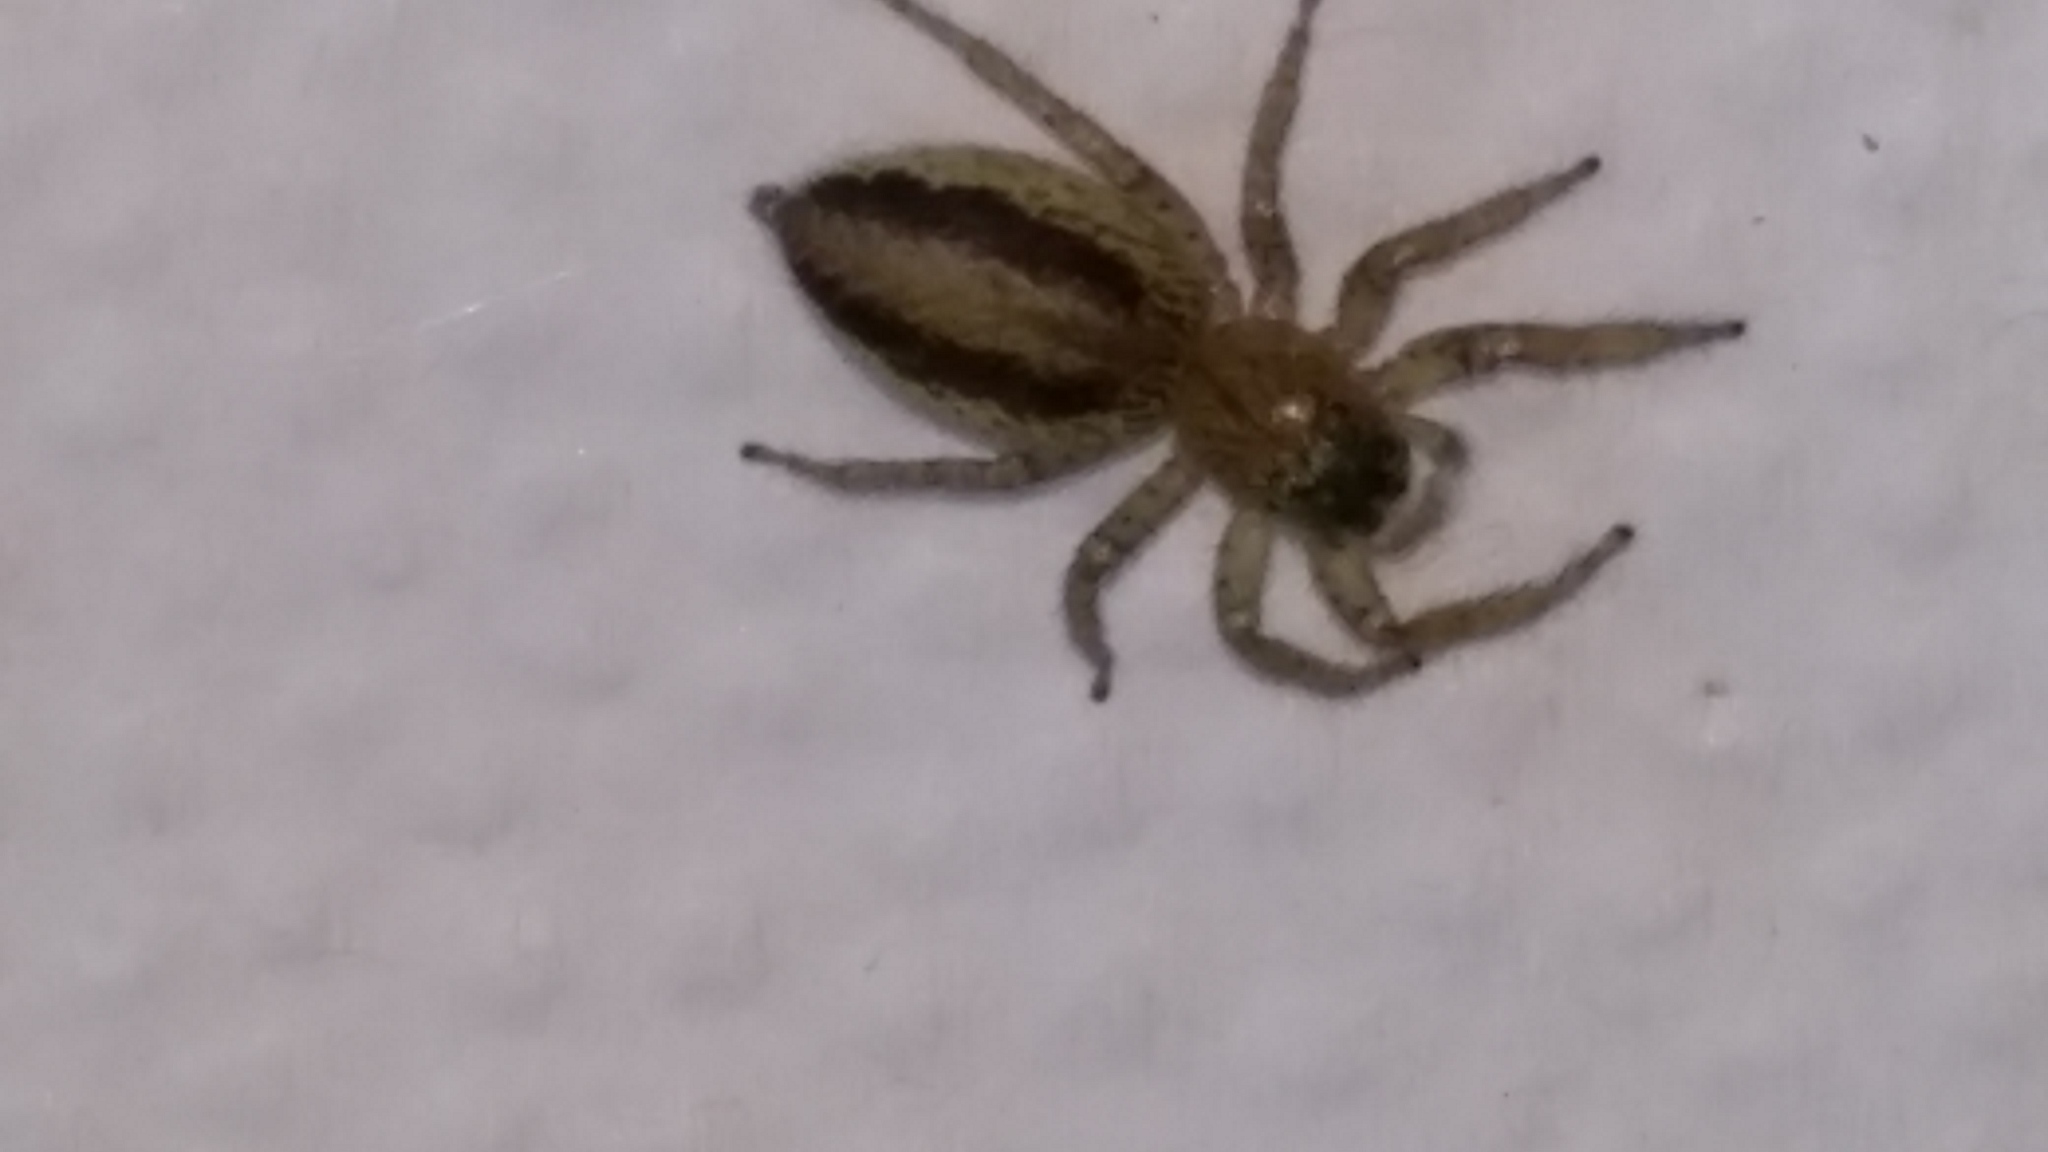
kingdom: Animalia
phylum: Arthropoda
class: Arachnida
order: Araneae
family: Salticidae
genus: Maevia
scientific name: Maevia inclemens
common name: Dimorphic jumper
